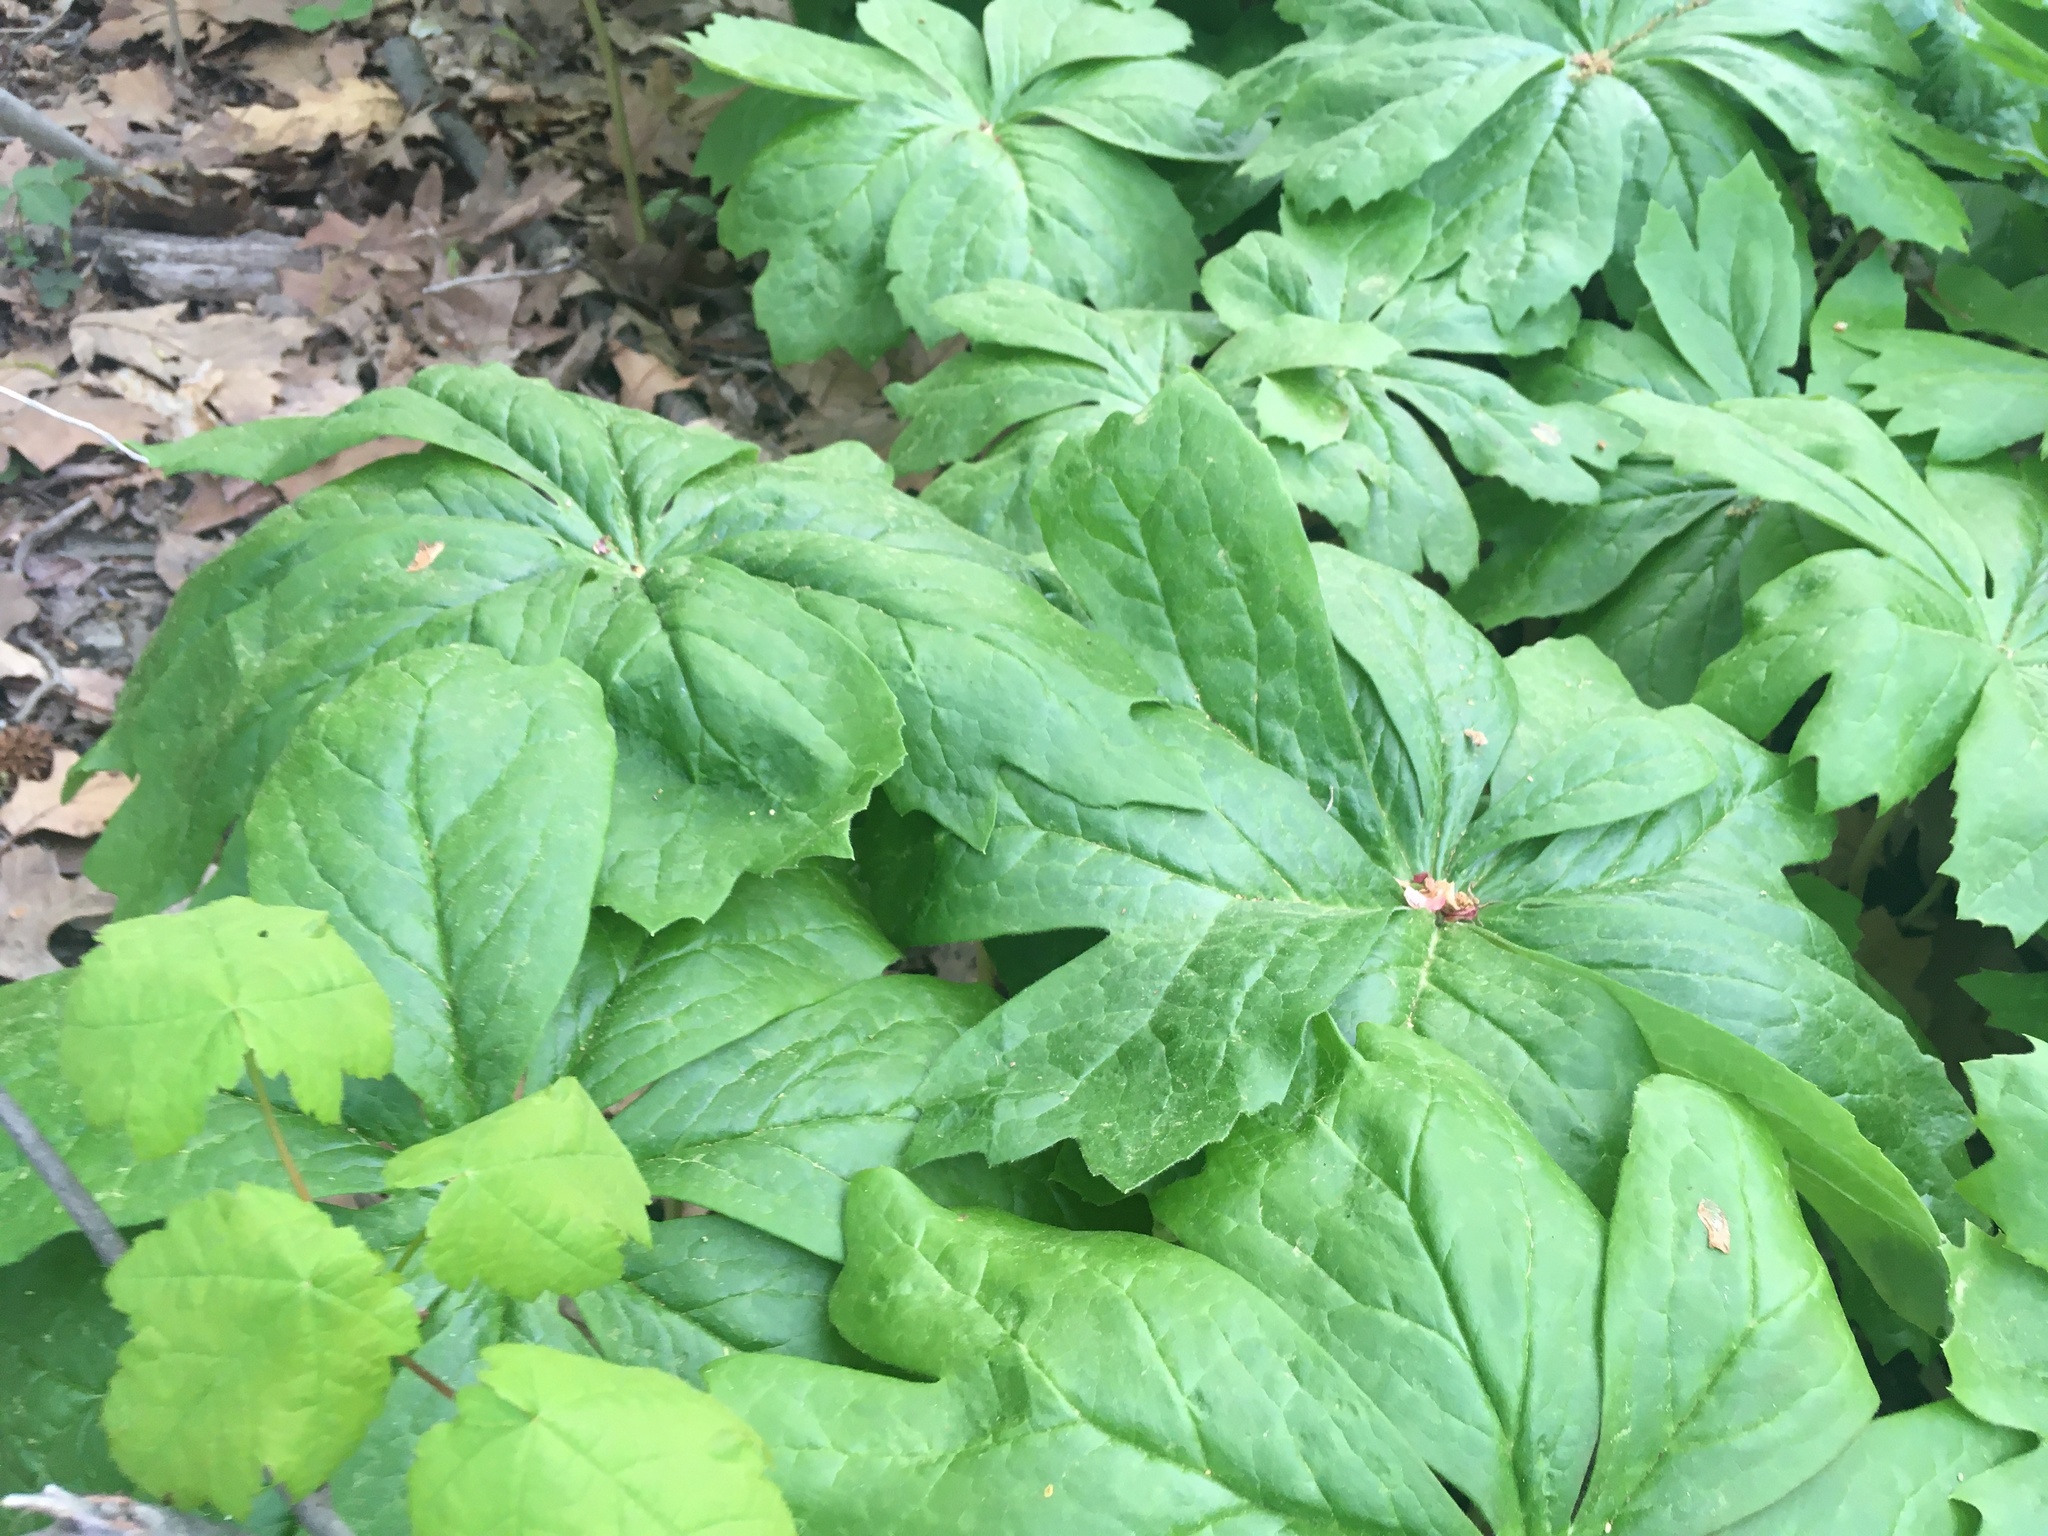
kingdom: Plantae
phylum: Tracheophyta
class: Magnoliopsida
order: Ranunculales
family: Berberidaceae
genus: Podophyllum
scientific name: Podophyllum peltatum
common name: Wild mandrake
